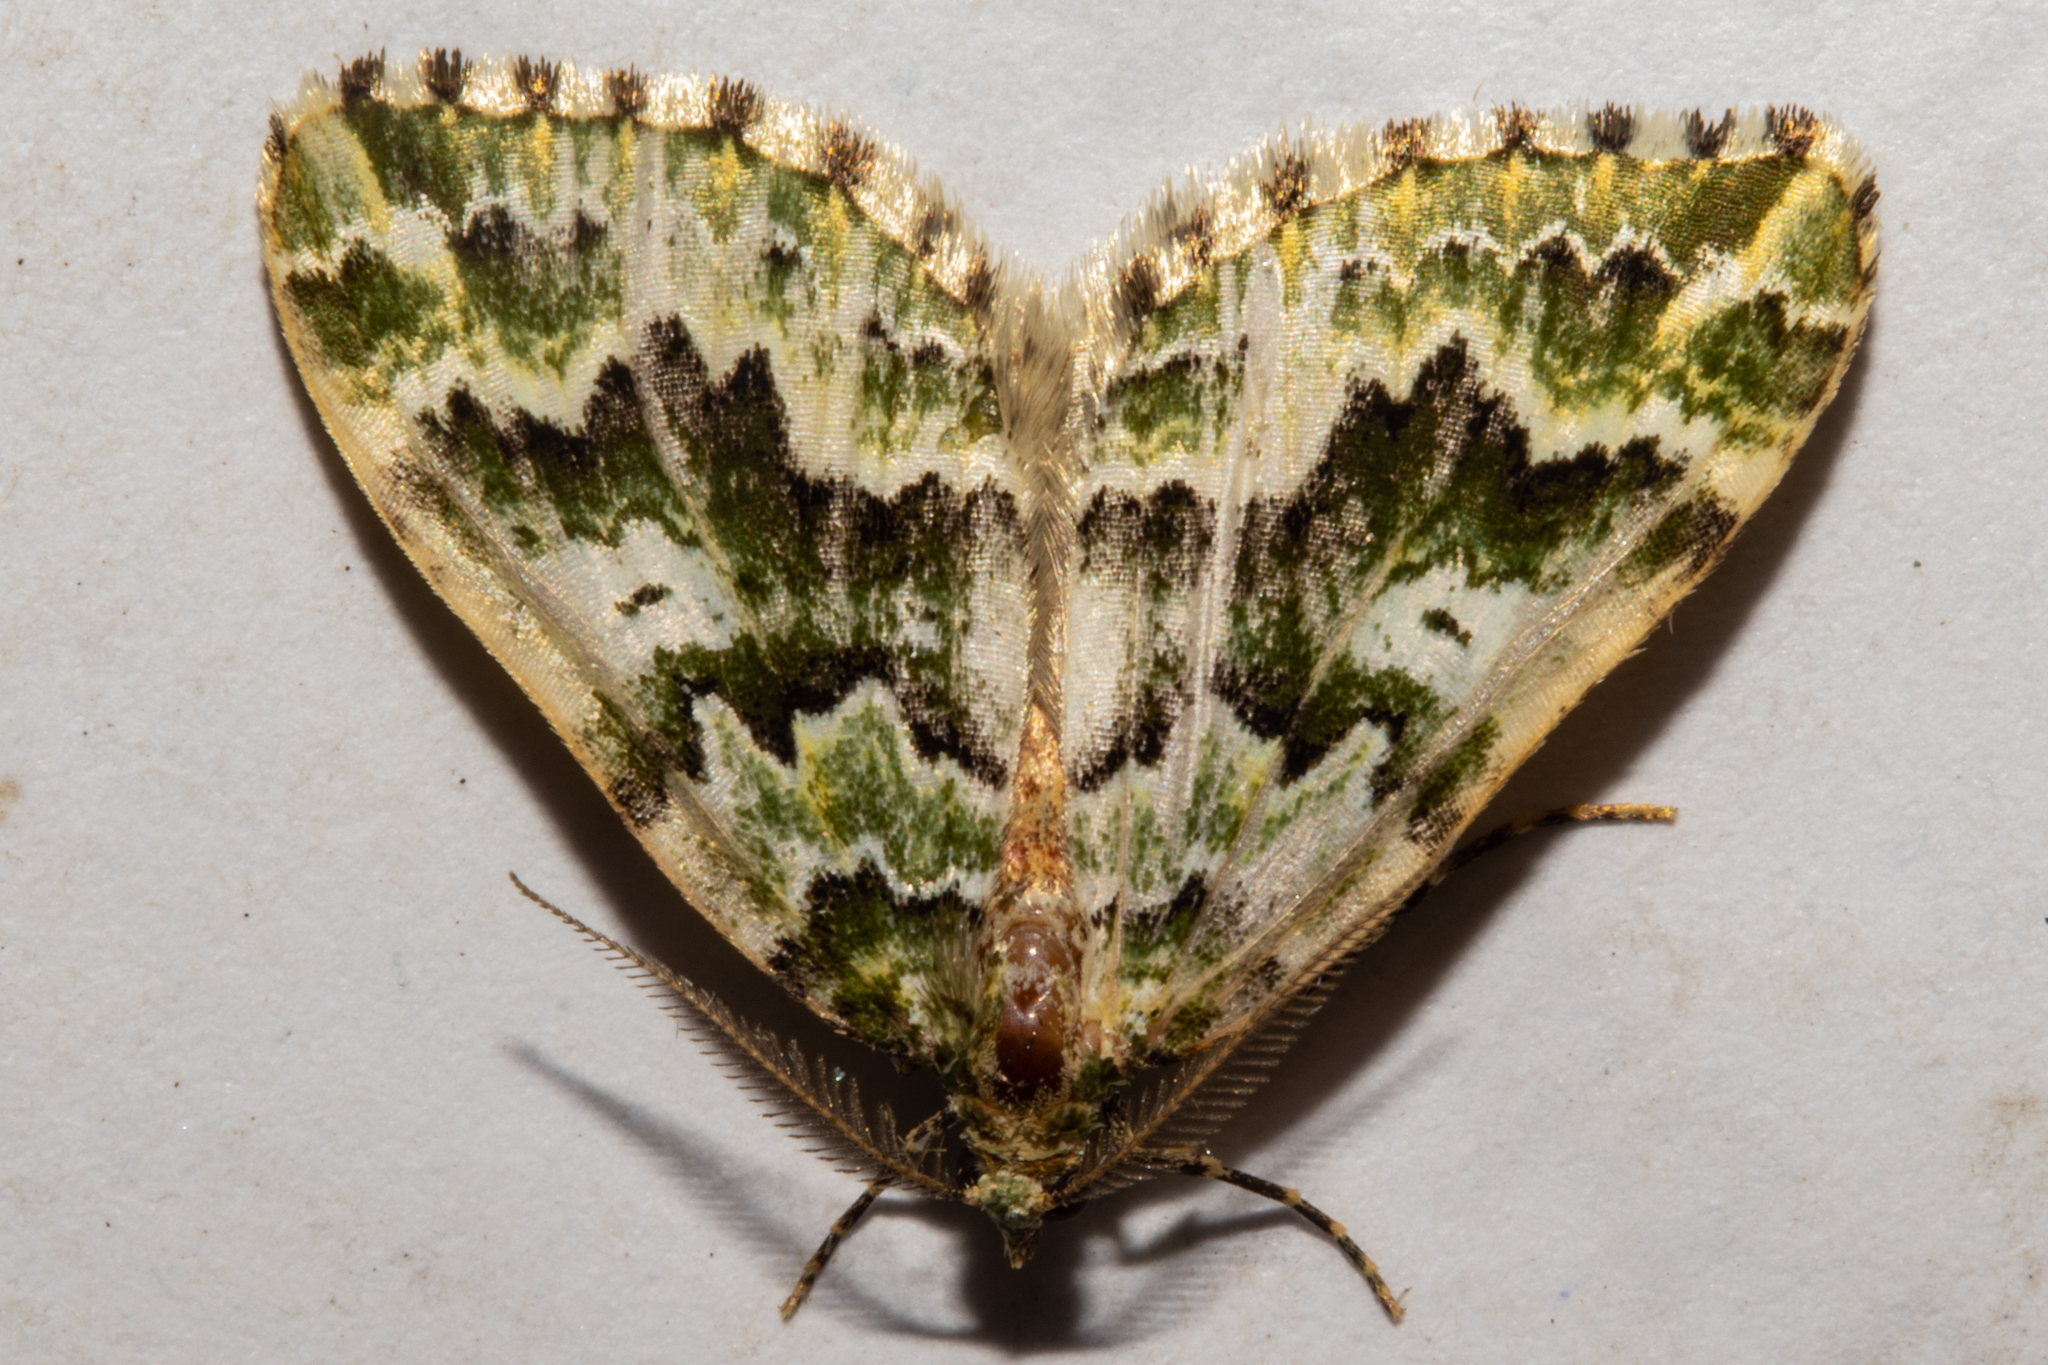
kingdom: Animalia
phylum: Arthropoda
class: Insecta
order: Lepidoptera
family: Geometridae
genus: Asaphodes
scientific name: Asaphodes beata
